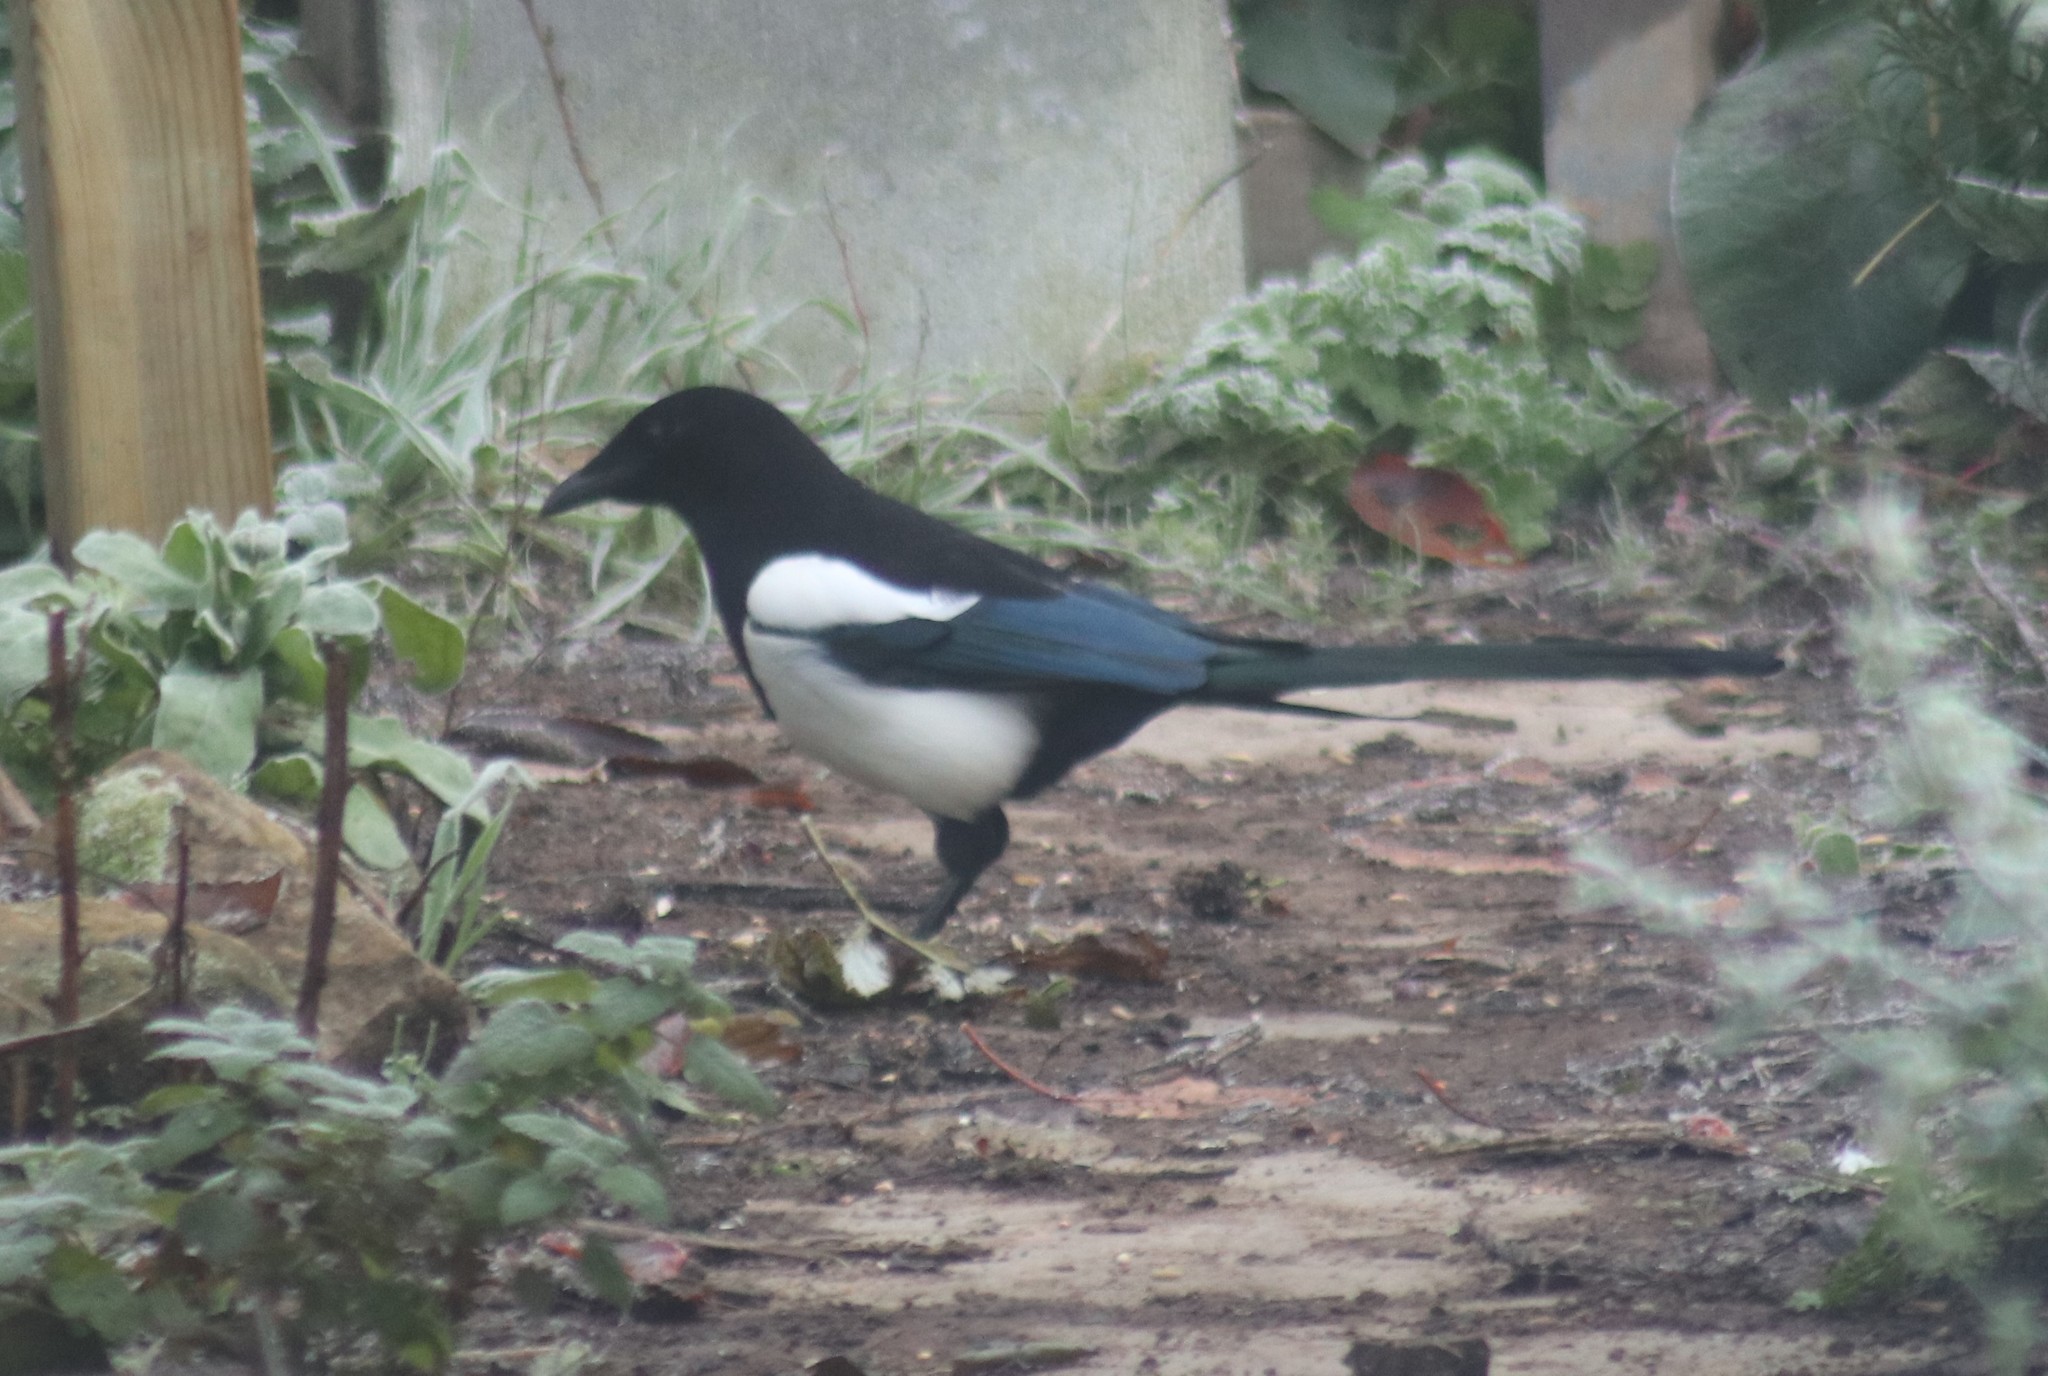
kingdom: Animalia
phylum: Chordata
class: Aves
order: Passeriformes
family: Corvidae
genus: Pica
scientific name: Pica pica
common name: Eurasian magpie
